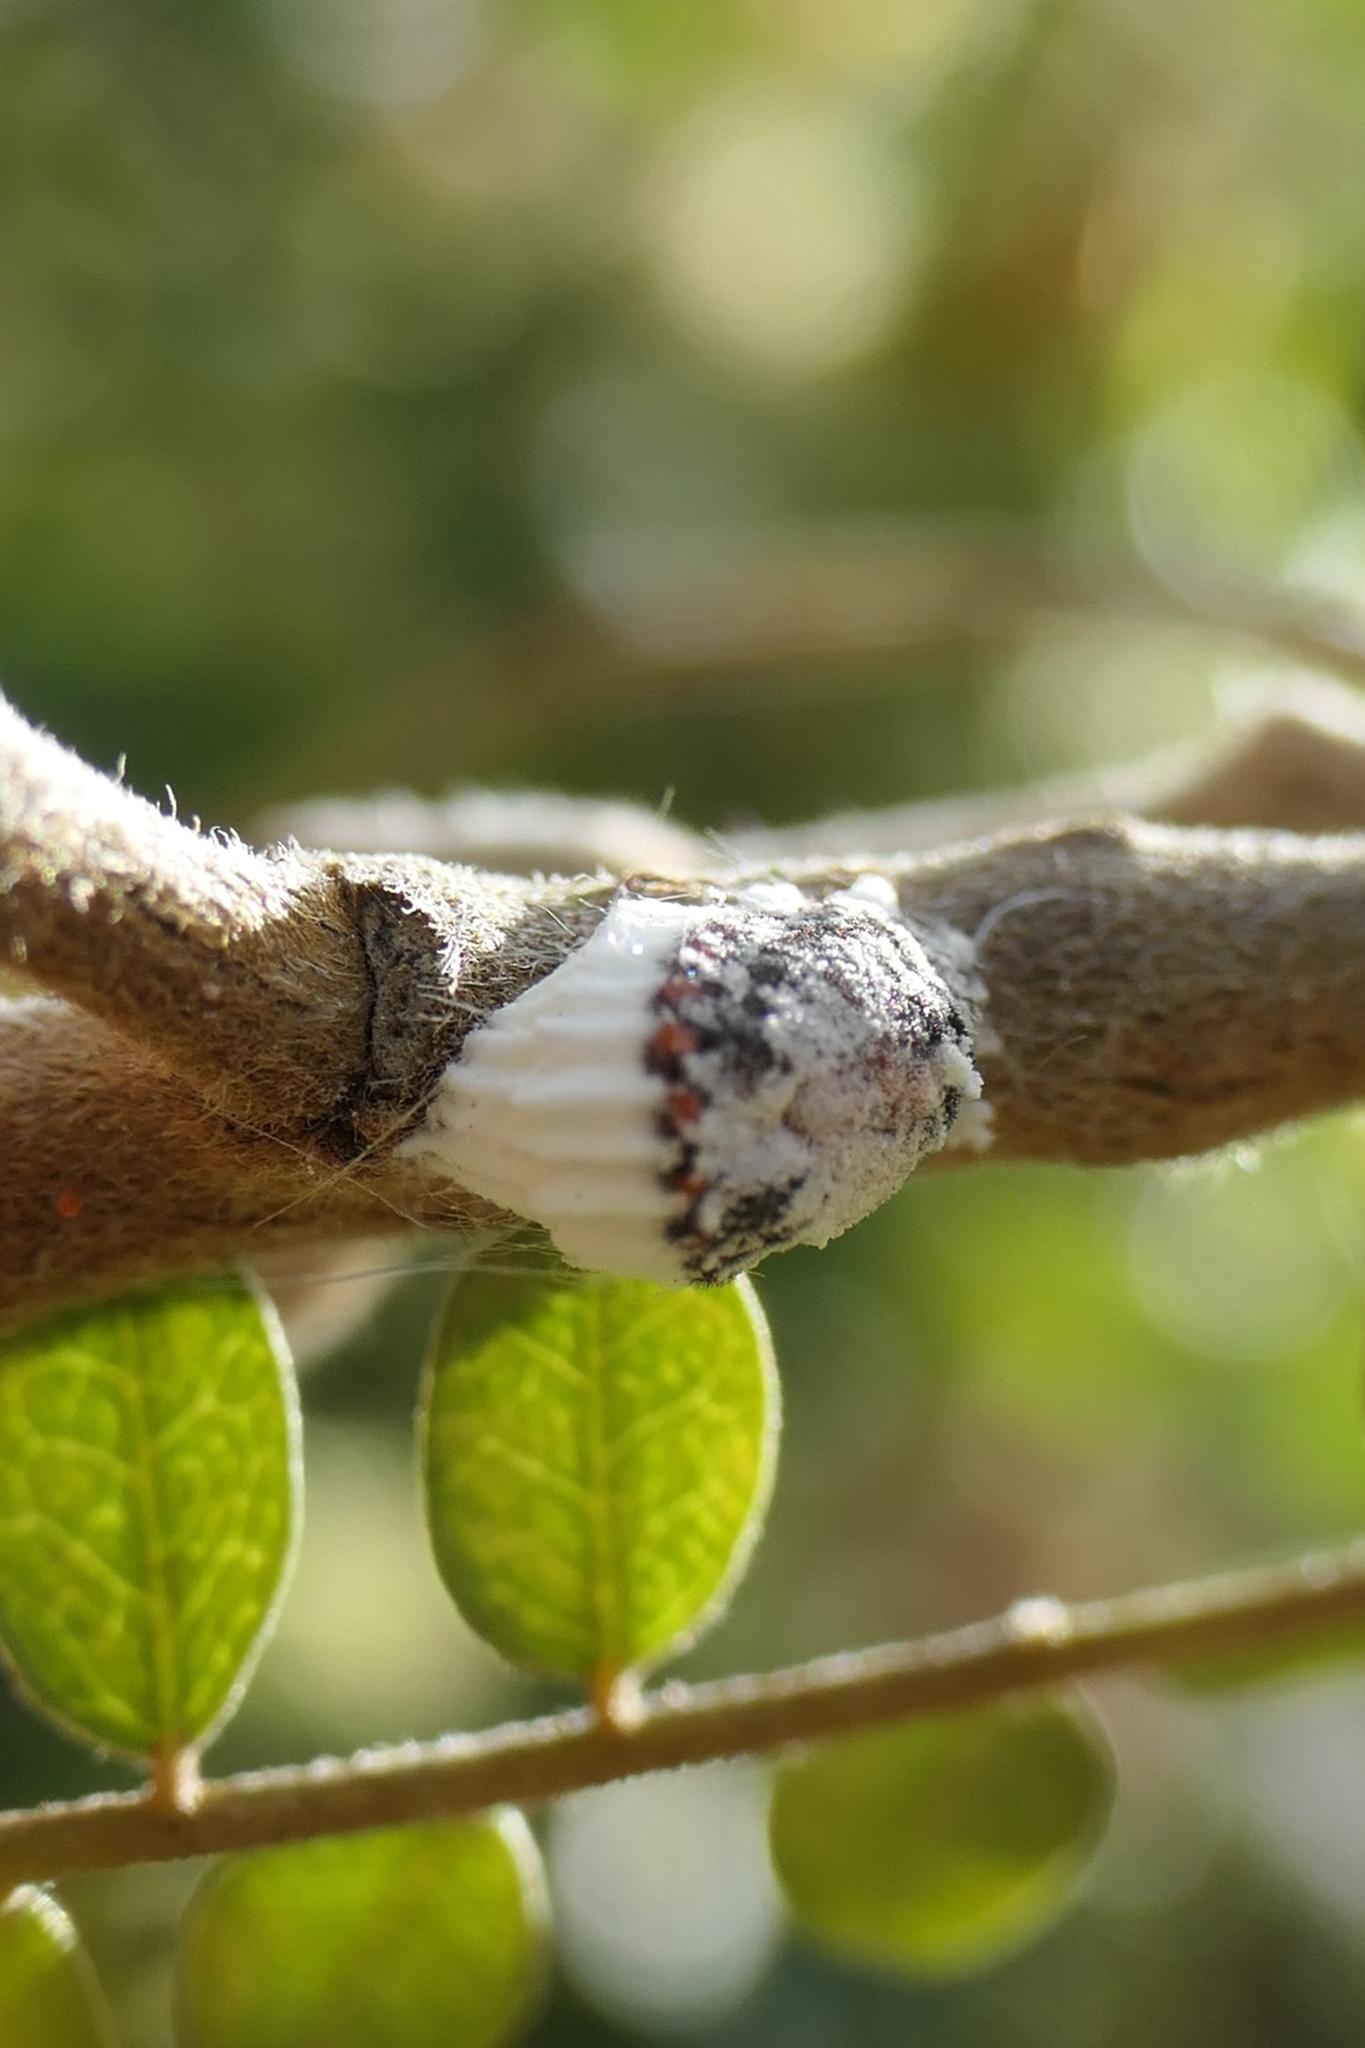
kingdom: Animalia
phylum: Arthropoda
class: Insecta
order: Hemiptera
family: Margarodidae
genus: Icerya
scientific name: Icerya purchasi
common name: Cottony cushion scale
